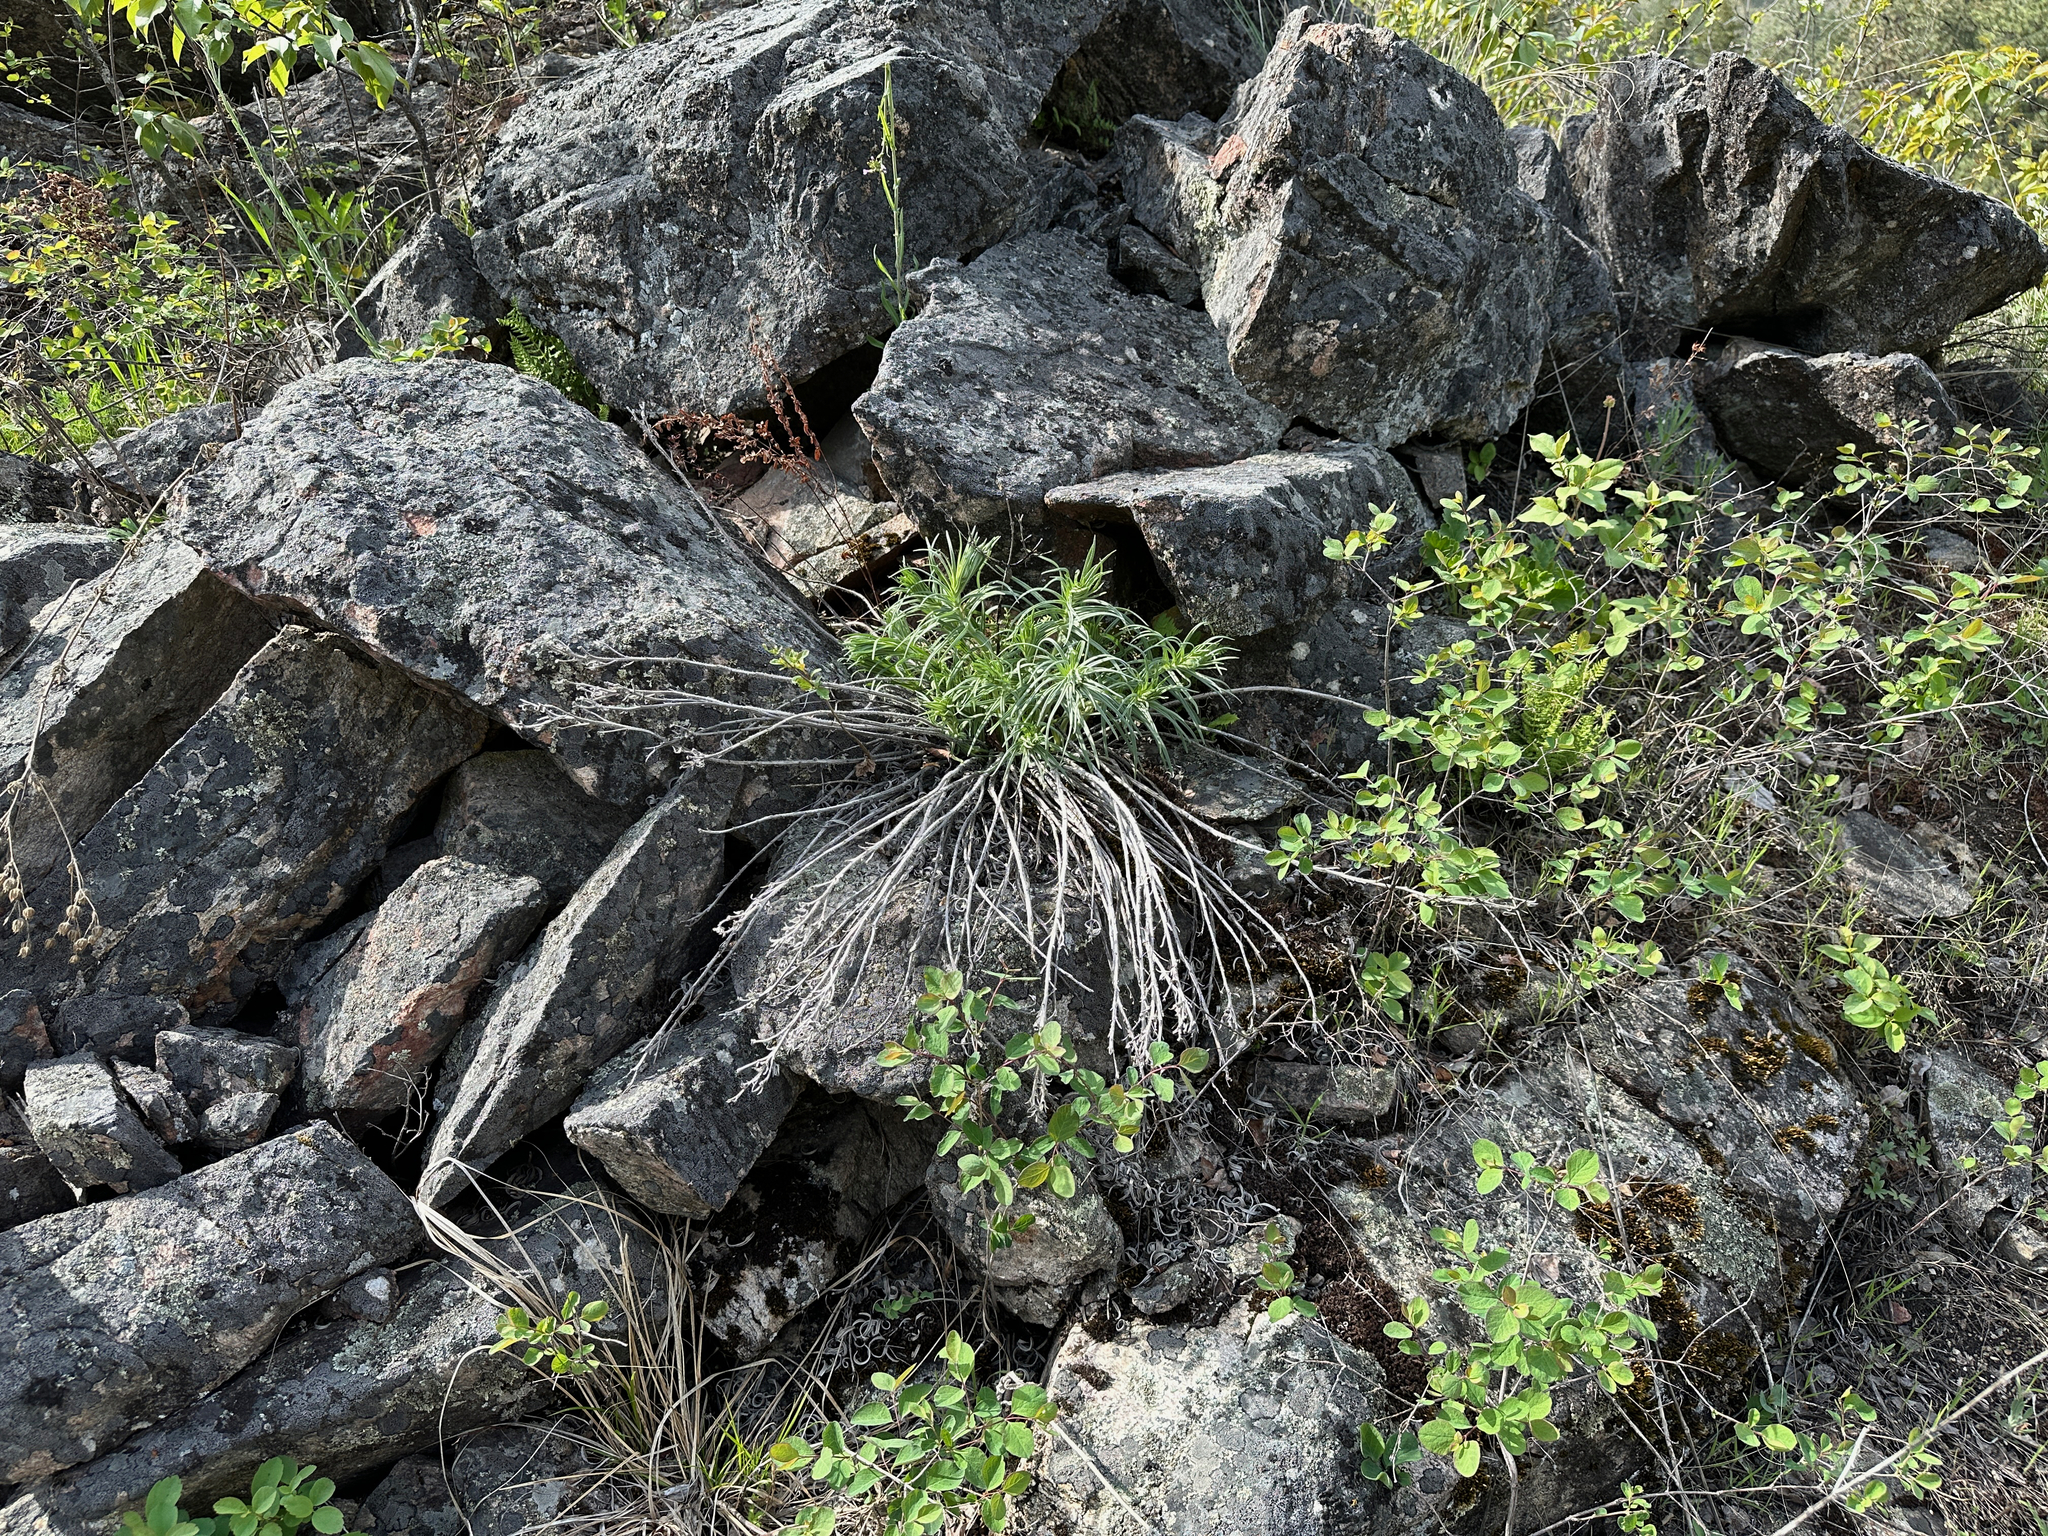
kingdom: Plantae
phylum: Tracheophyta
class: Magnoliopsida
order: Boraginales
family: Boraginaceae
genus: Lithospermum
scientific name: Lithospermum ruderale
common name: Western gromwell
